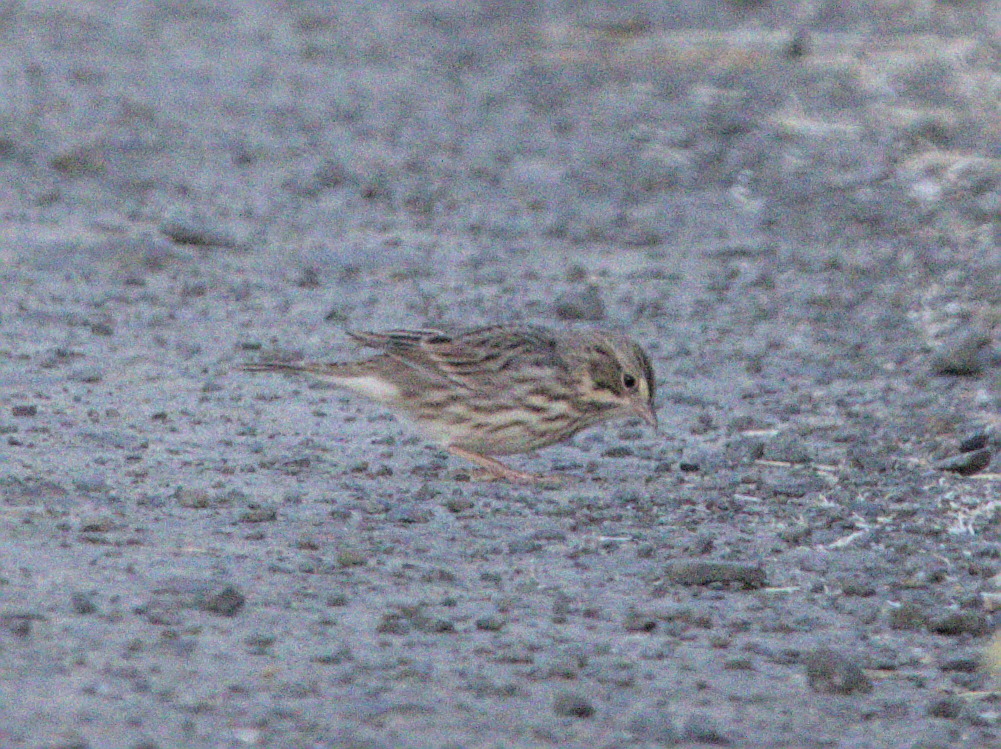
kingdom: Animalia
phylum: Chordata
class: Aves
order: Passeriformes
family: Passerellidae
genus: Passerculus
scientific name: Passerculus sandwichensis
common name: Savannah sparrow
